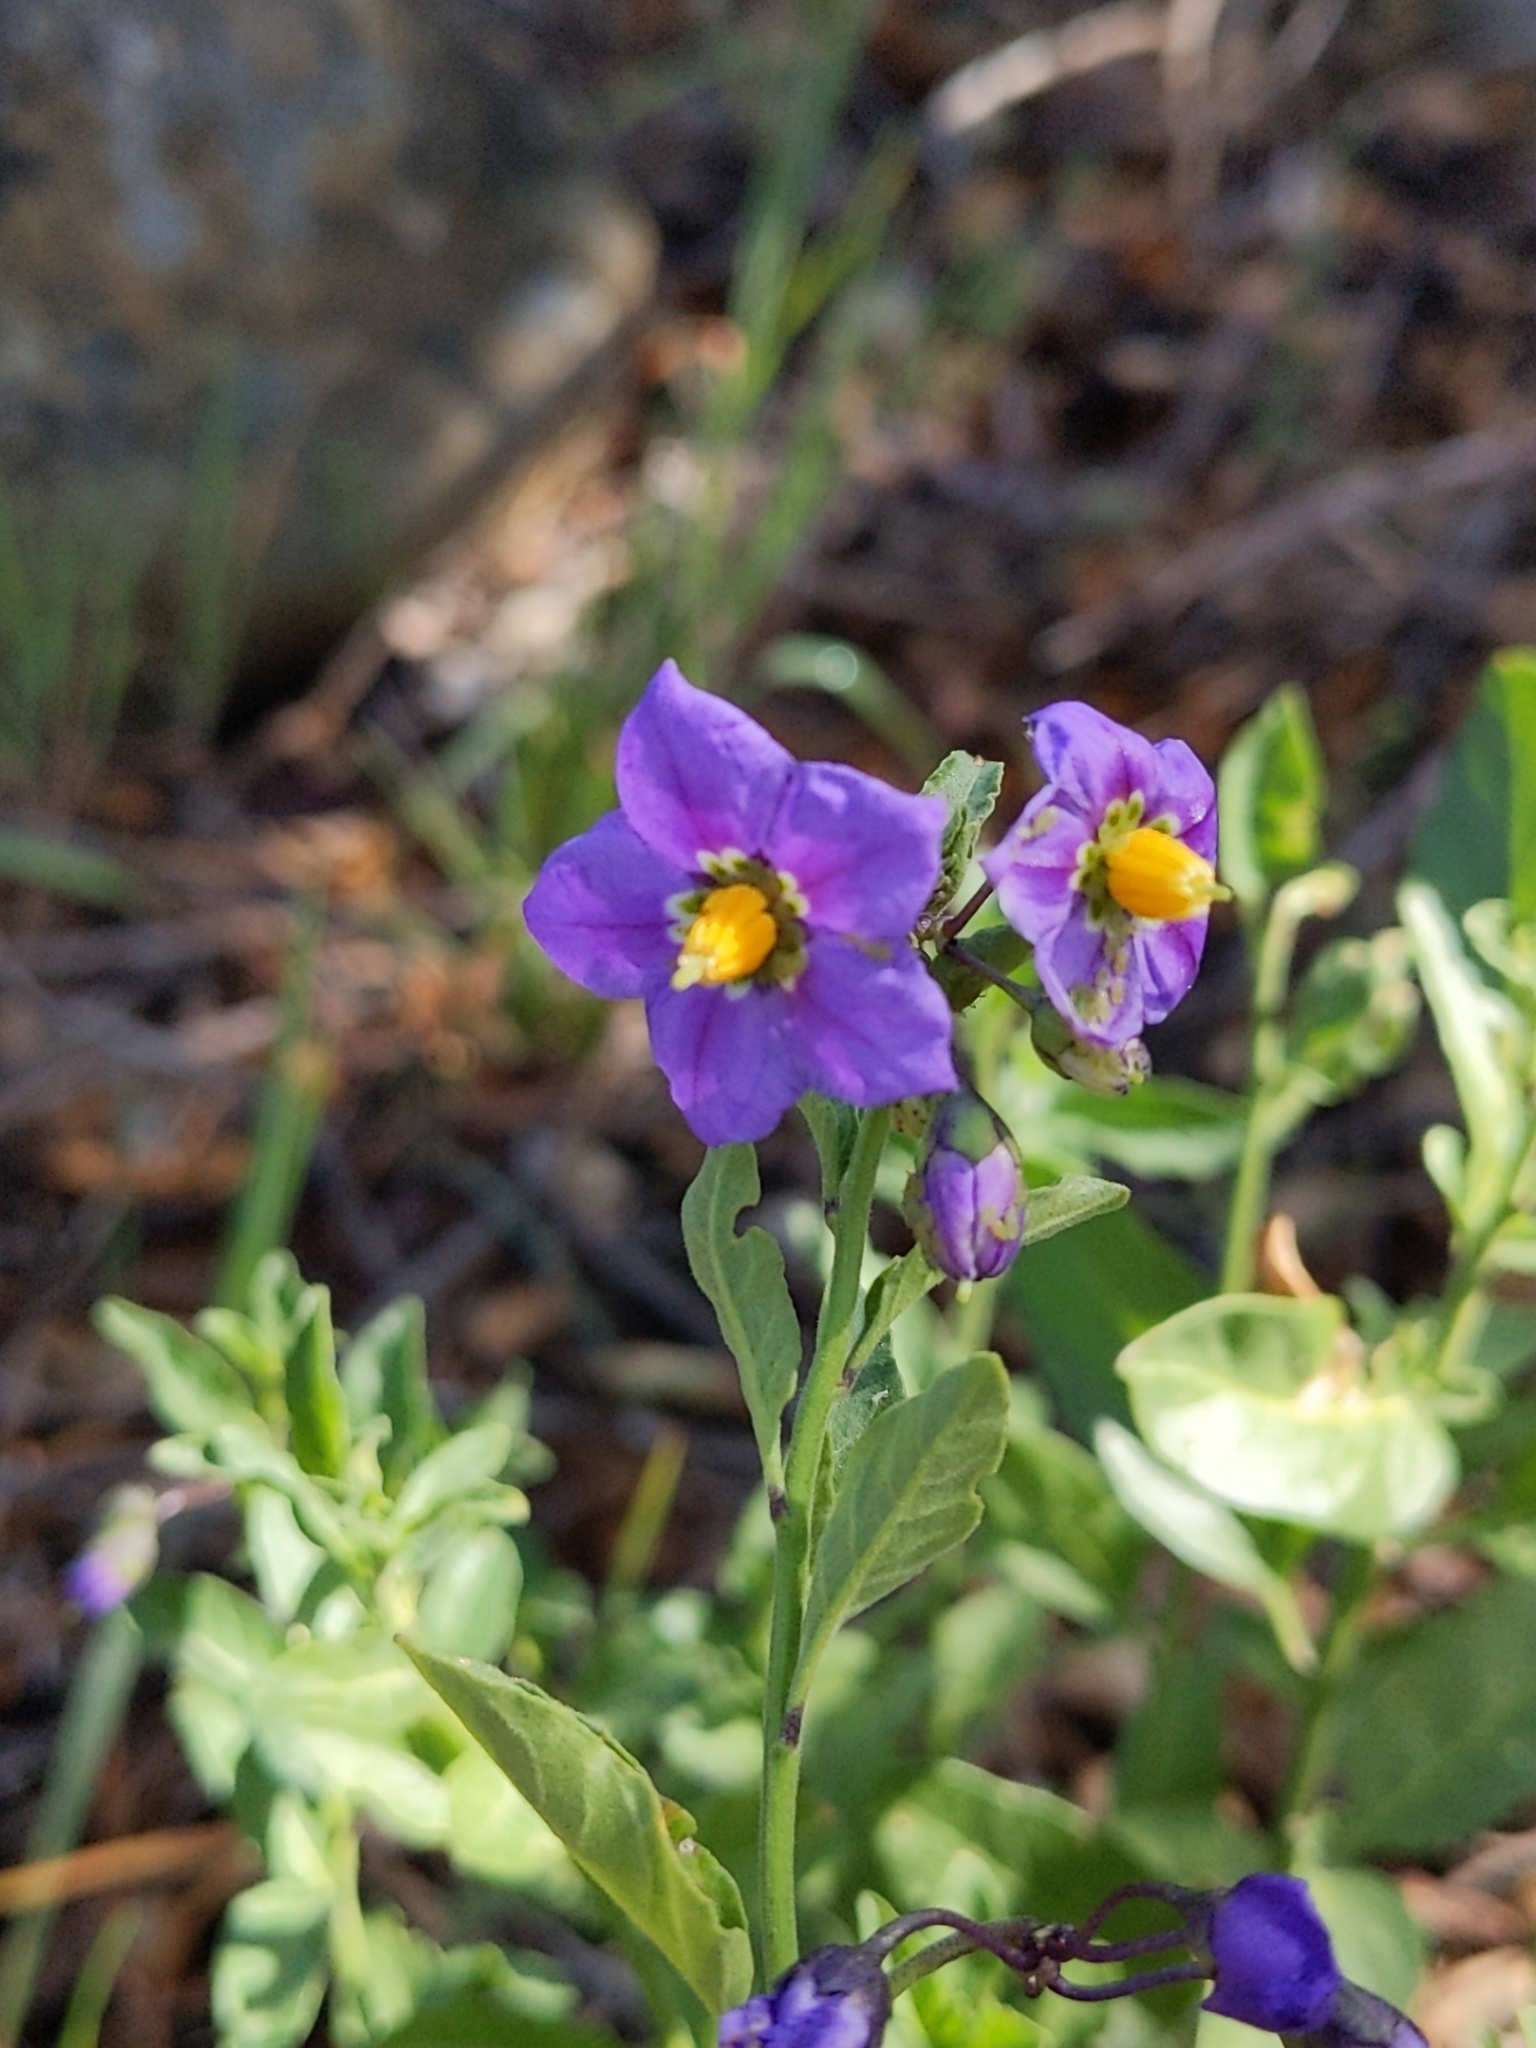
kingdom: Plantae
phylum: Tracheophyta
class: Magnoliopsida
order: Solanales
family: Solanaceae
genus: Solanum
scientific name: Solanum umbelliferum
